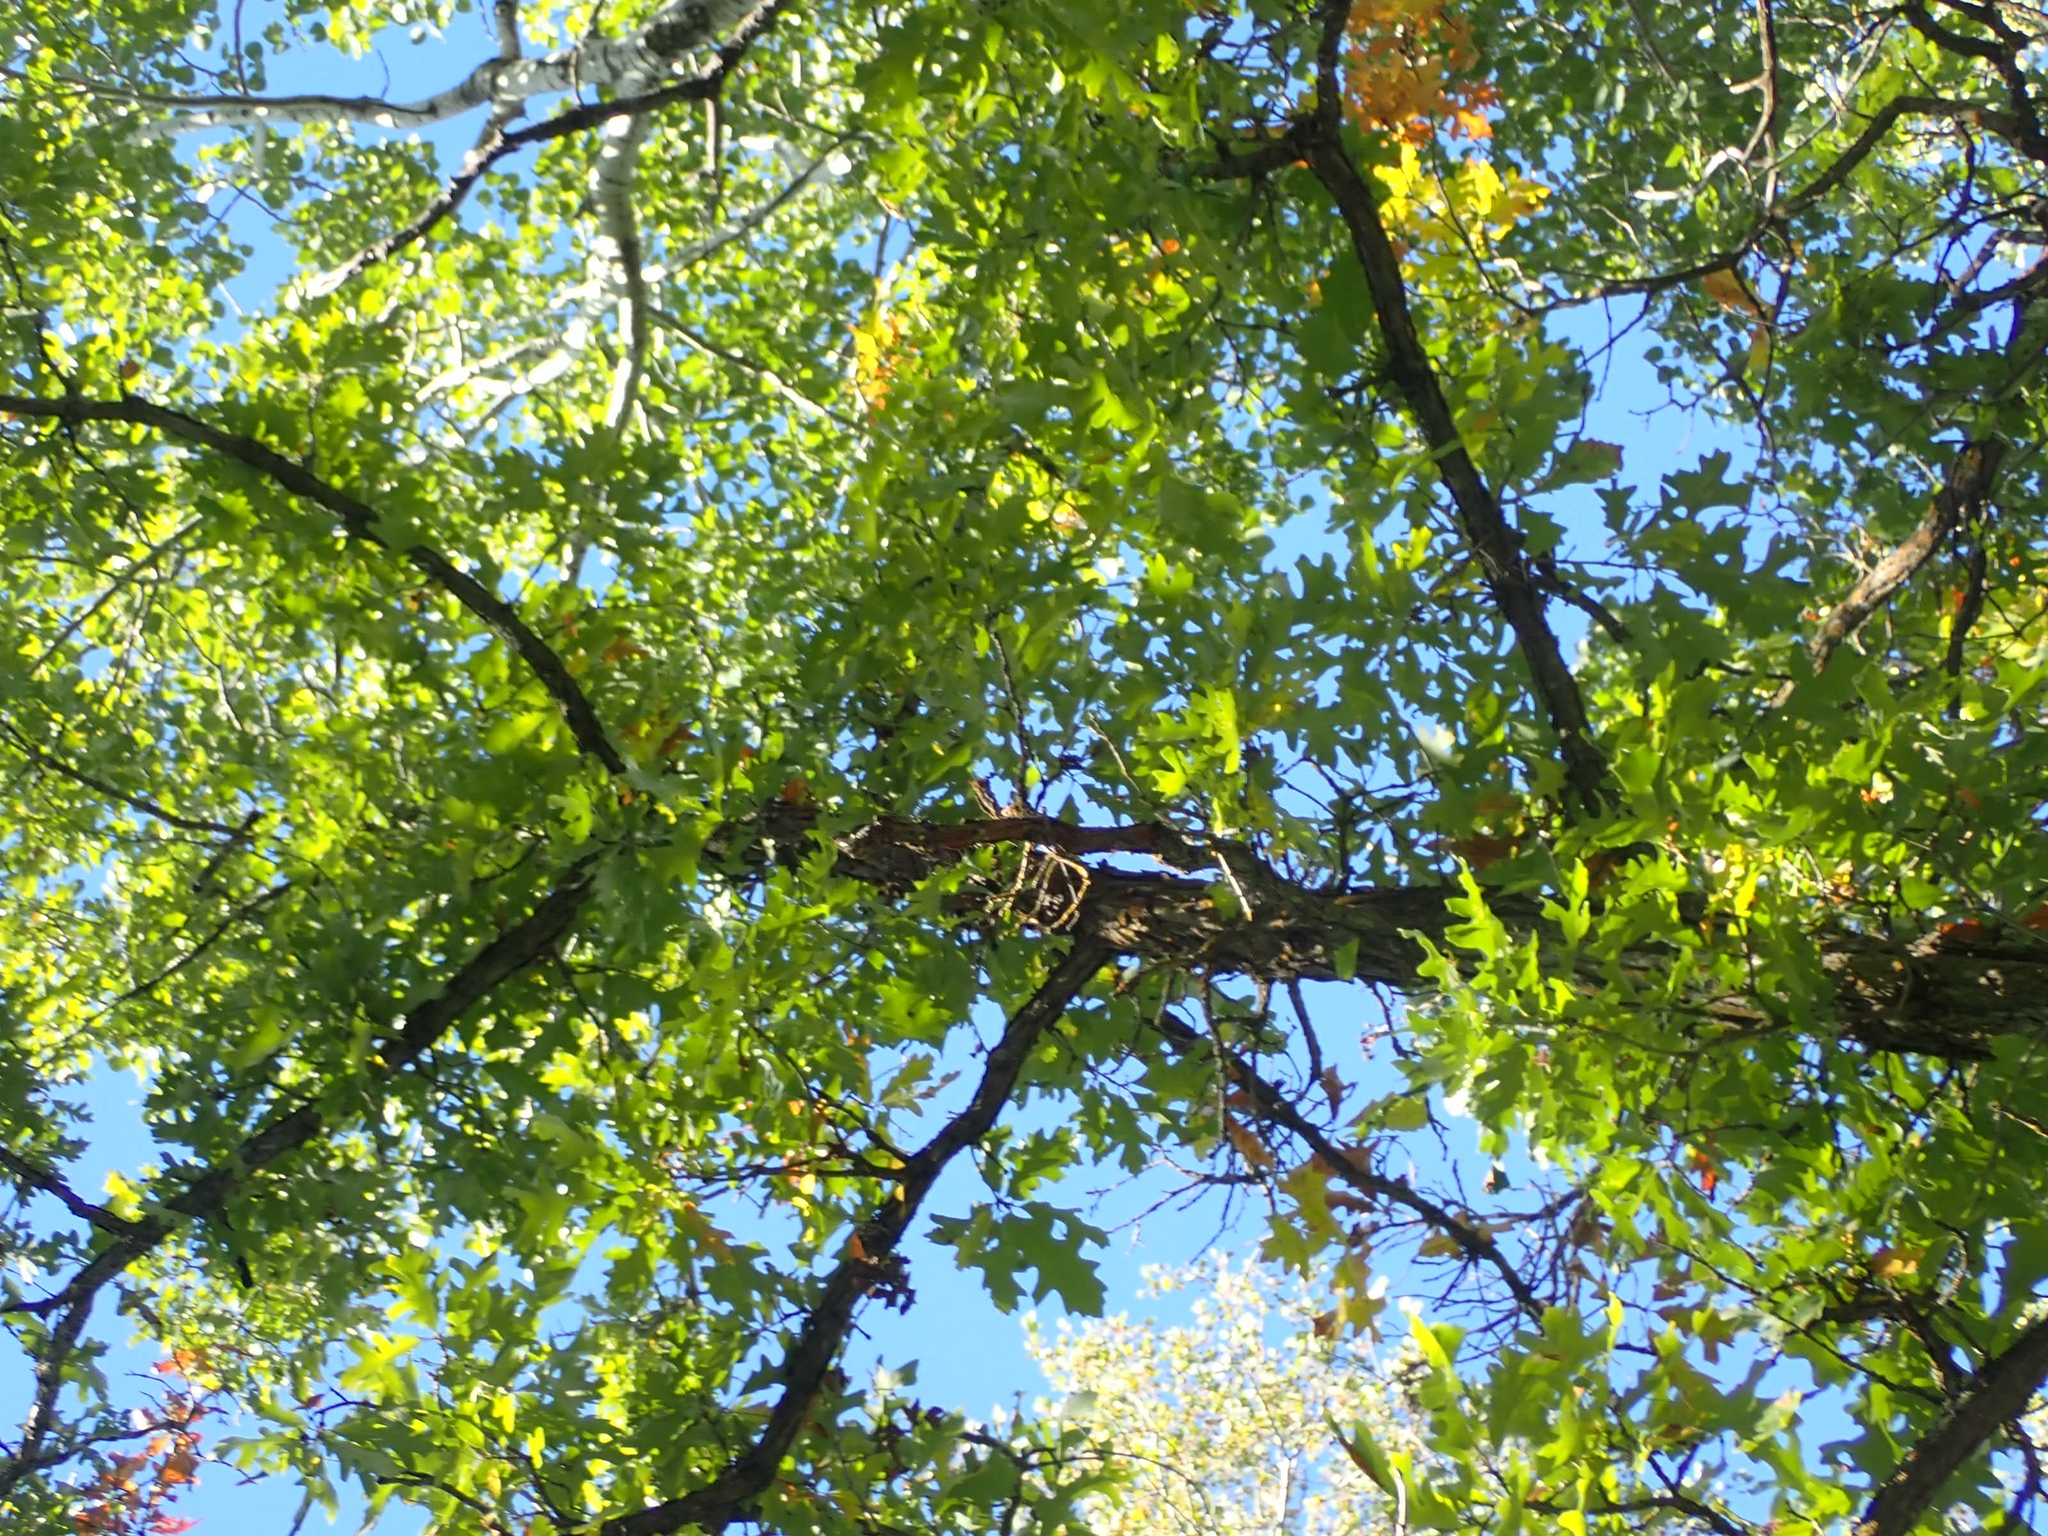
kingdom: Plantae
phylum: Tracheophyta
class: Magnoliopsida
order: Fagales
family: Fagaceae
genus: Quercus
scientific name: Quercus macrocarpa
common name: Bur oak
